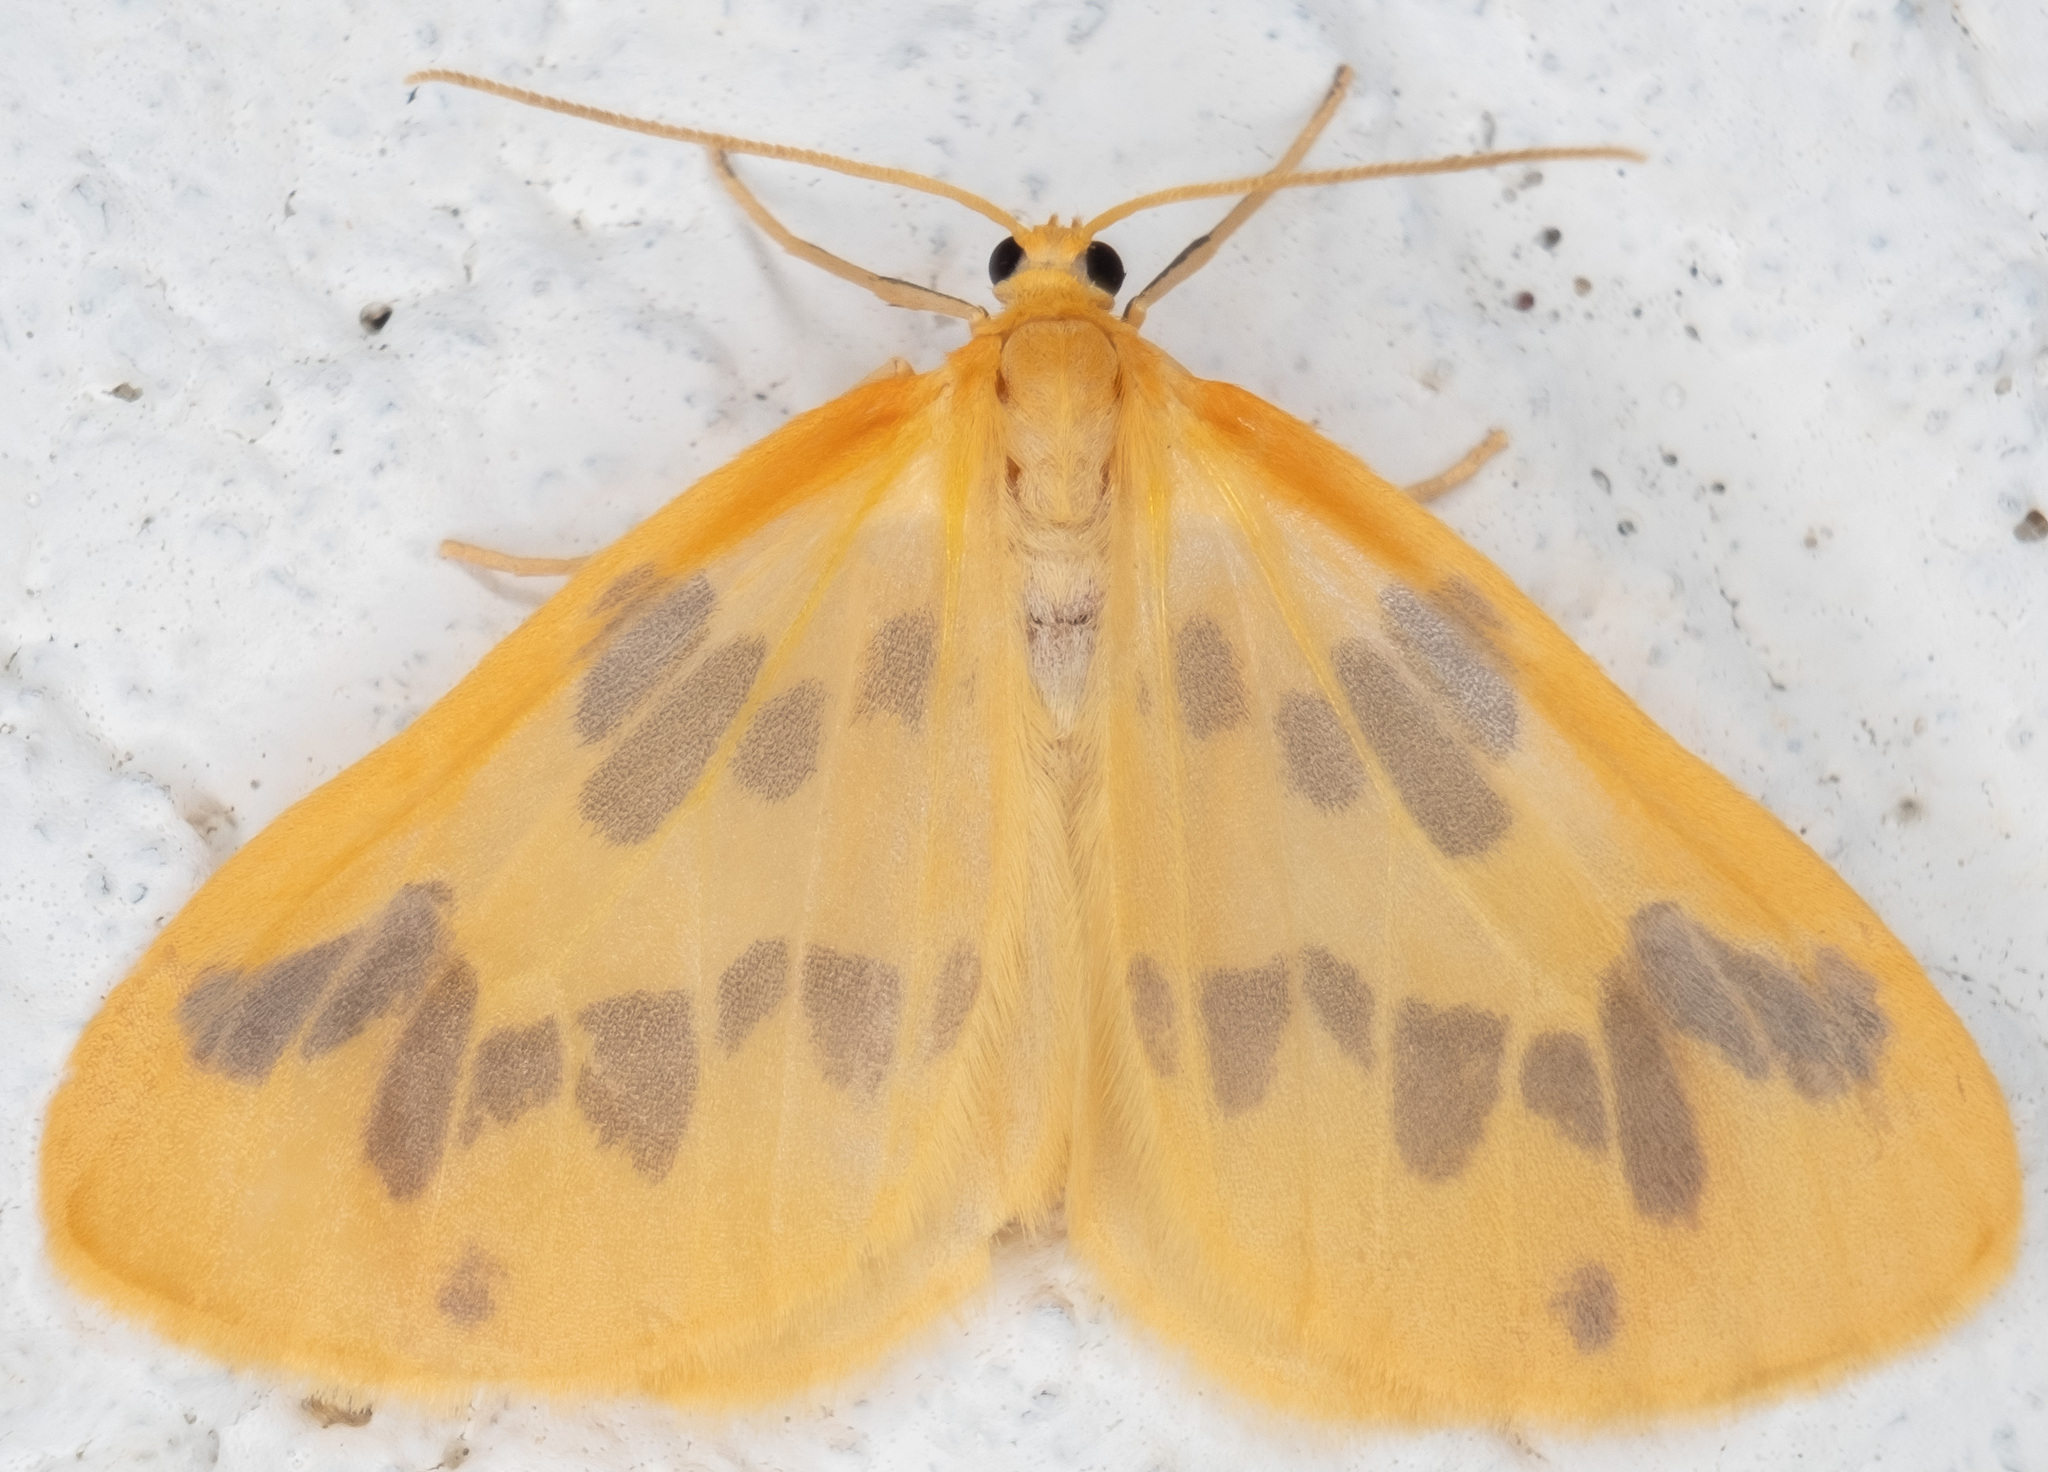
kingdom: Animalia
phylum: Arthropoda
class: Insecta
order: Lepidoptera
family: Geometridae
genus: Eubaphe
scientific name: Eubaphe mendica
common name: Beggar
